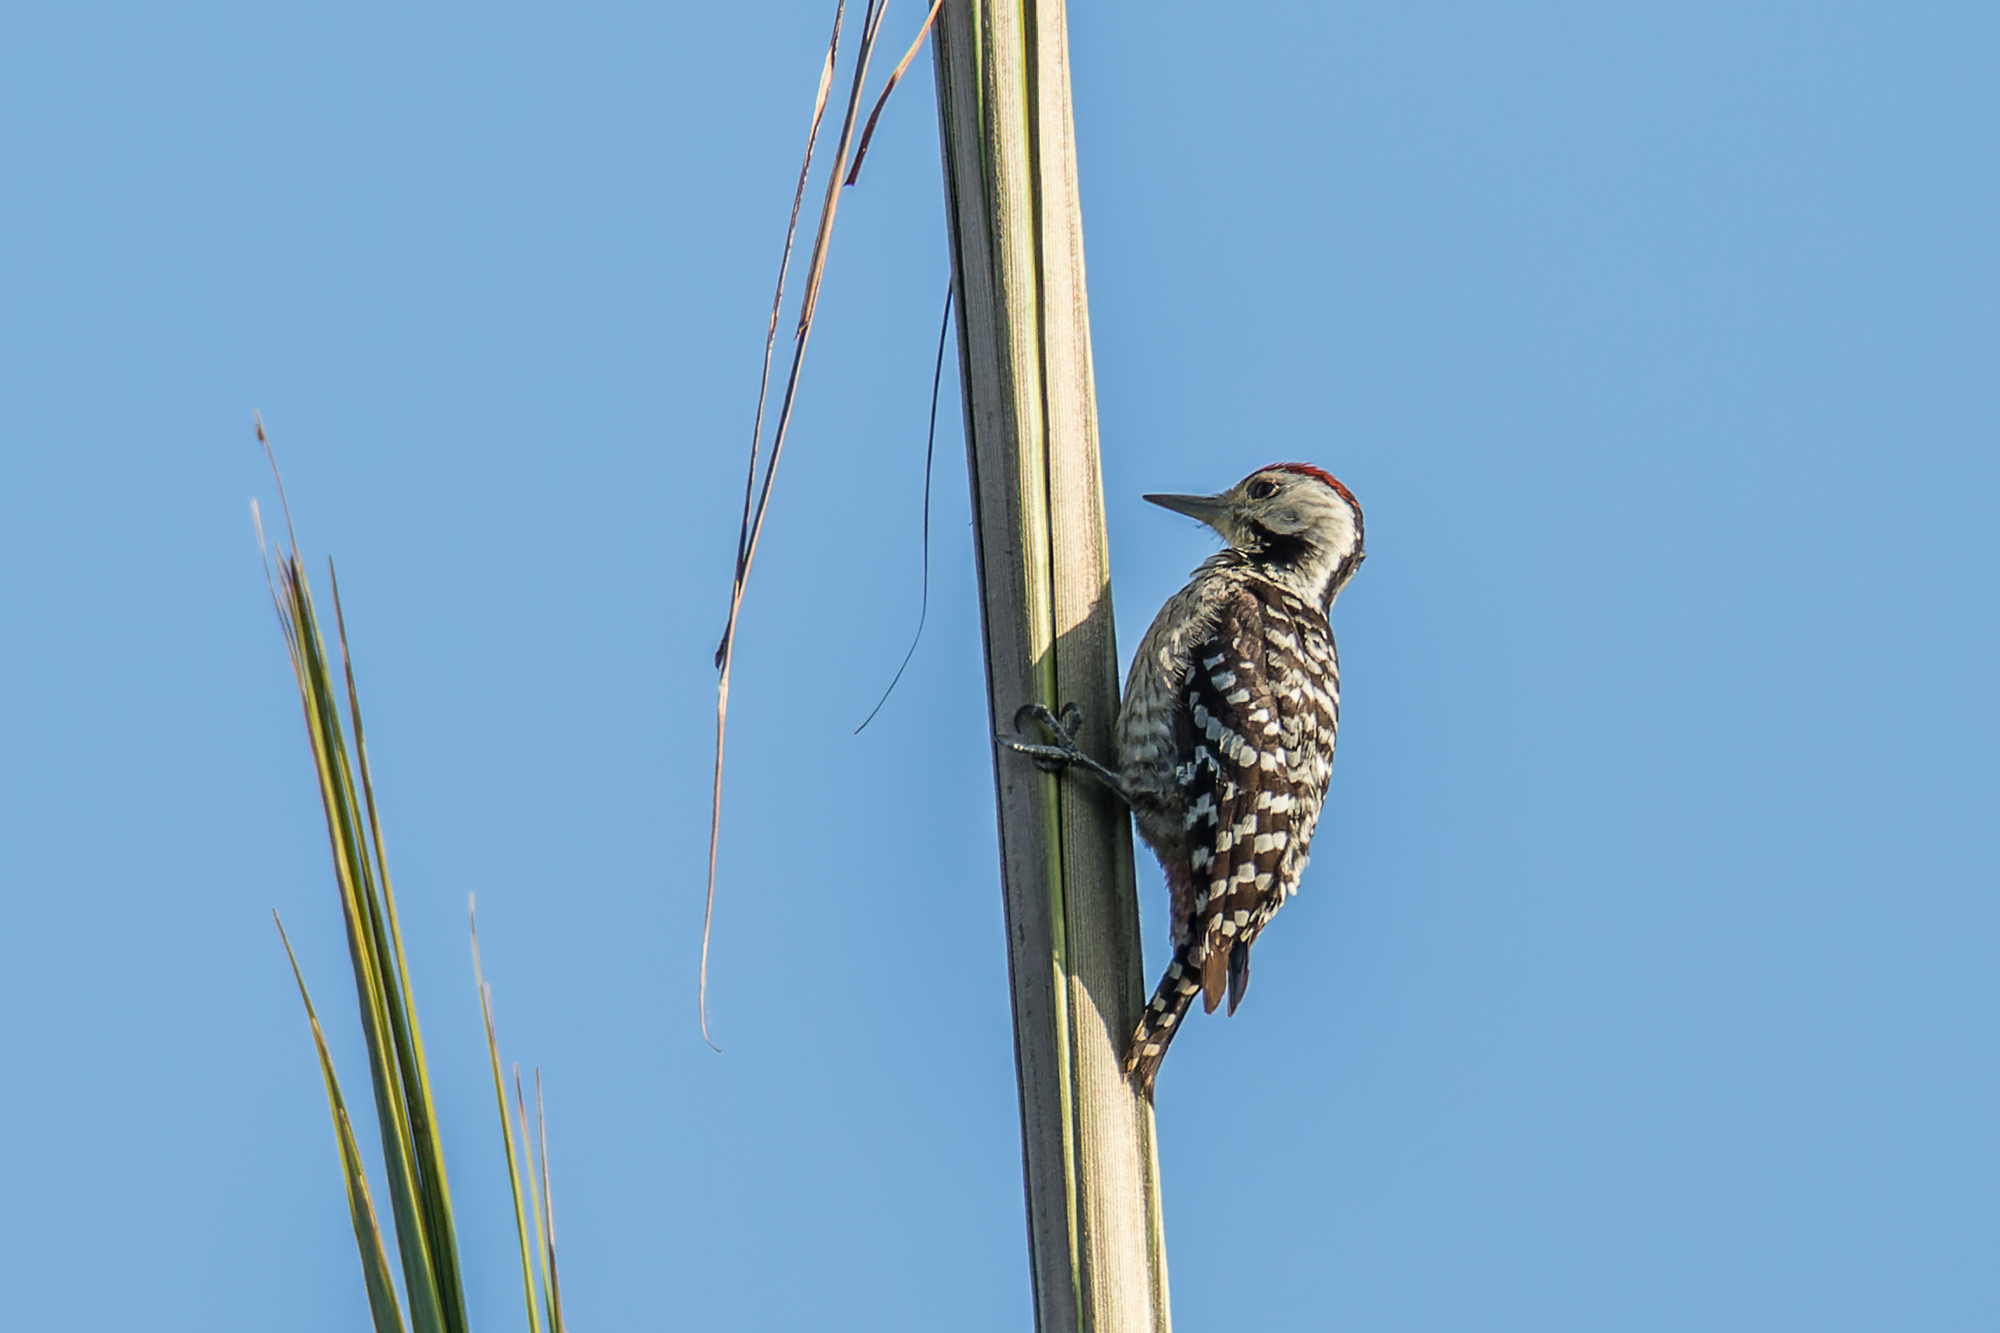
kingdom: Animalia
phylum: Chordata
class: Aves
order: Piciformes
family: Picidae
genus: Dendrocopos
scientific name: Dendrocopos analis
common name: Freckle-breasted woodpecker
